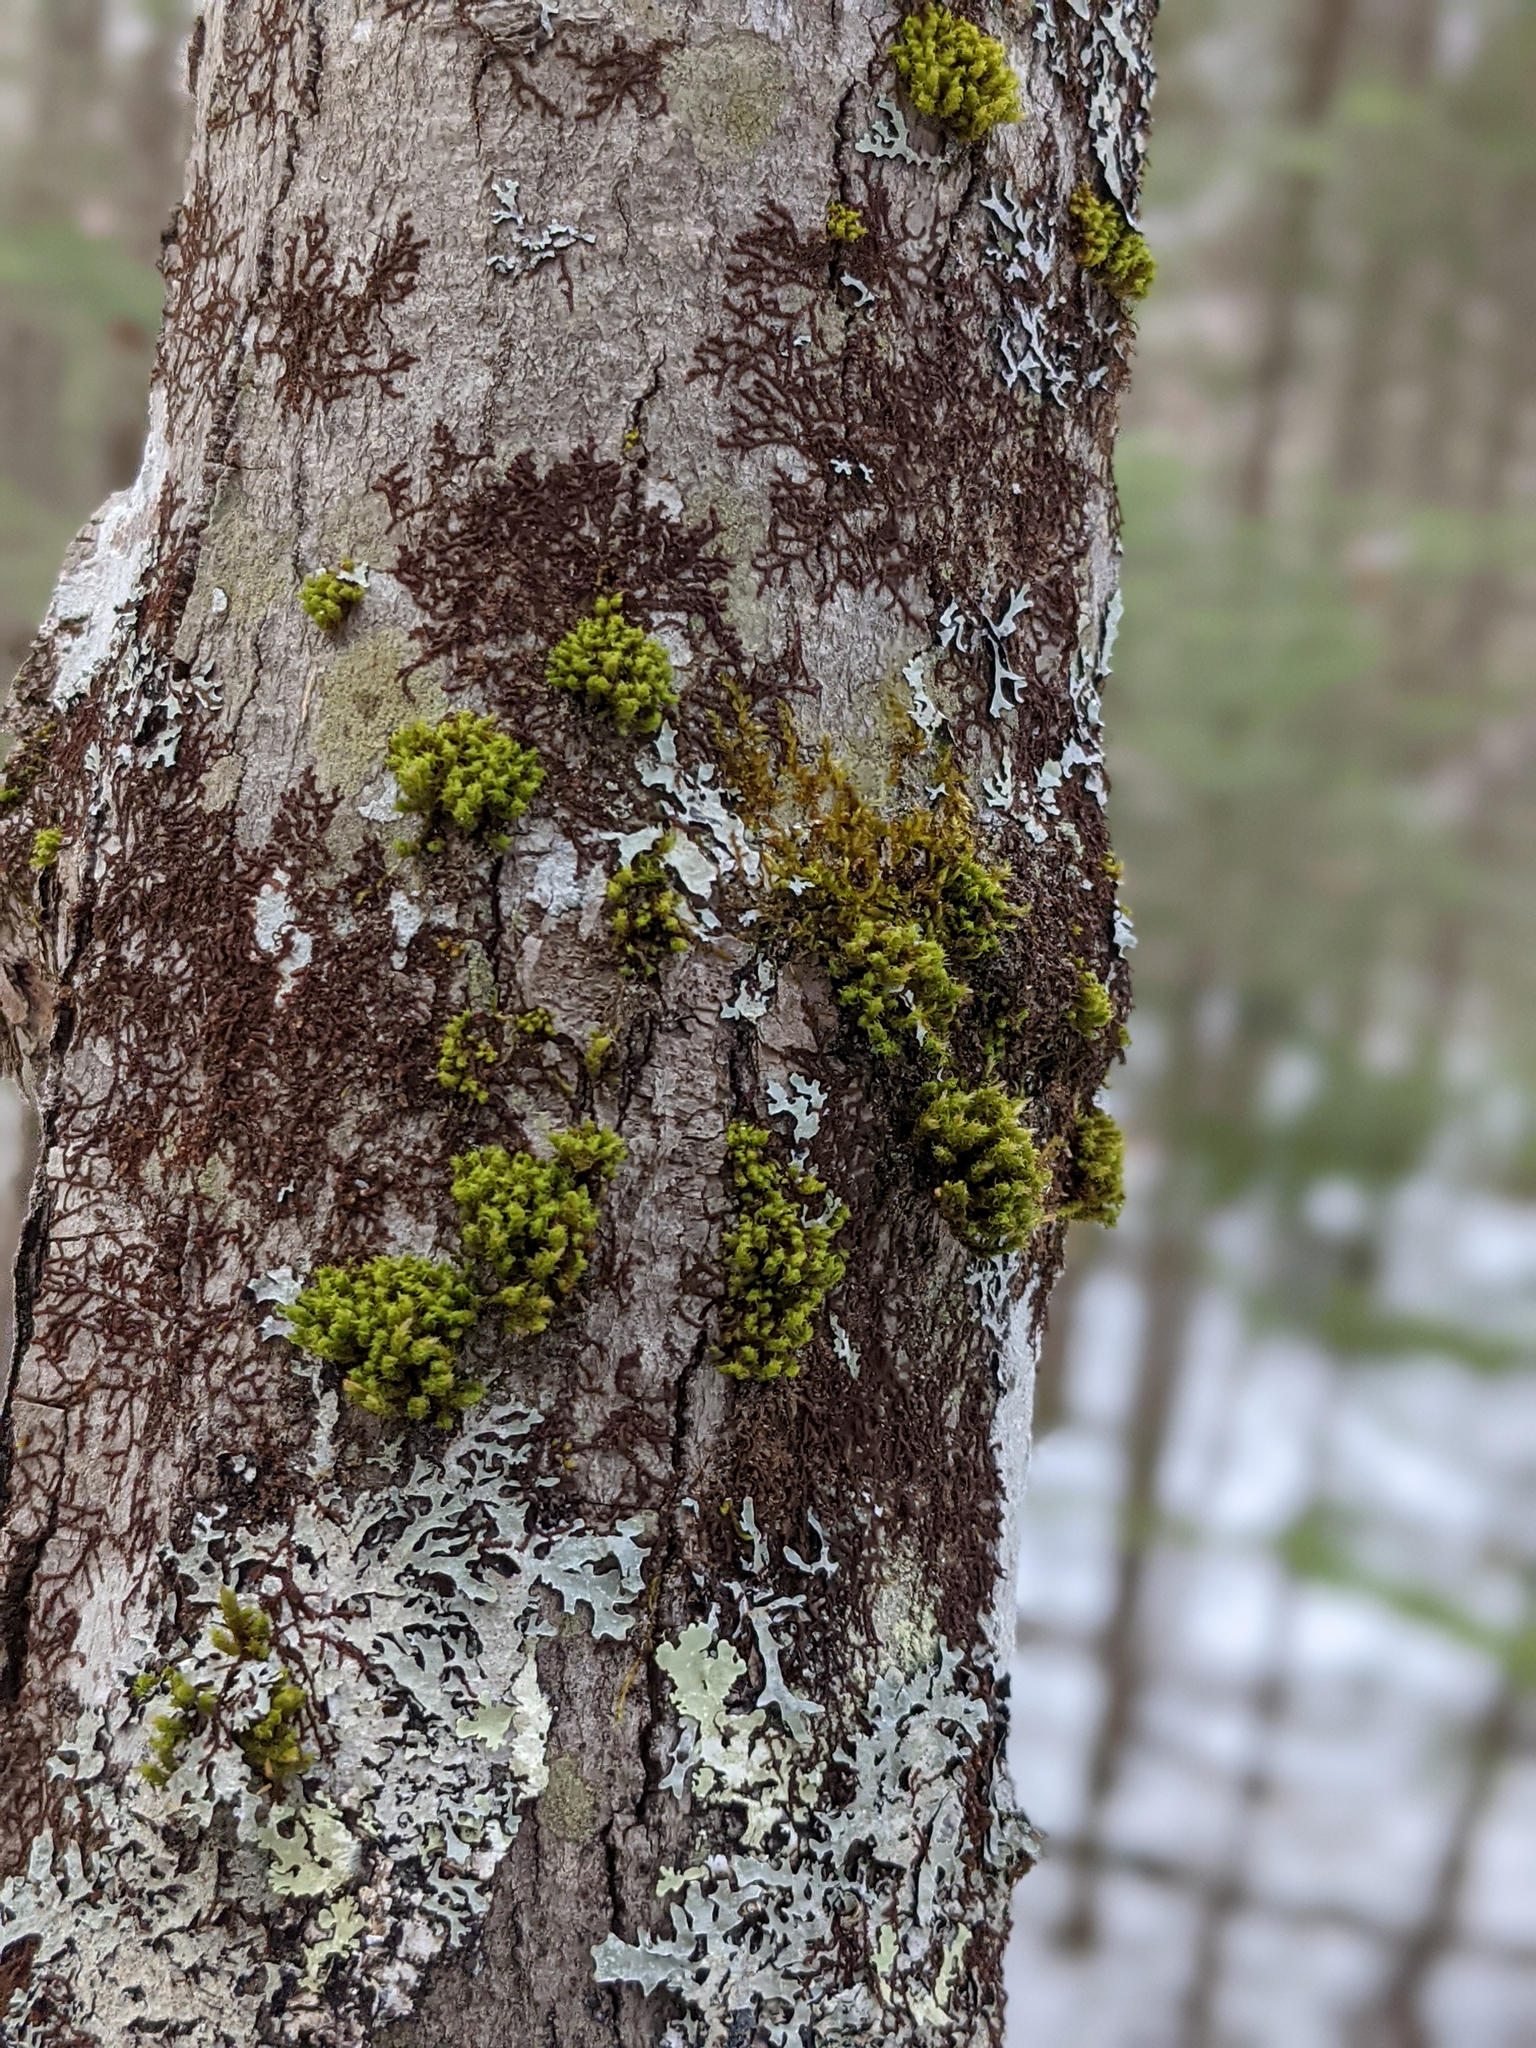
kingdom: Plantae
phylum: Bryophyta
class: Bryopsida
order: Orthotrichales
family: Orthotrichaceae
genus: Ulota
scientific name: Ulota crispa
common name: Crisped pincushion moss
